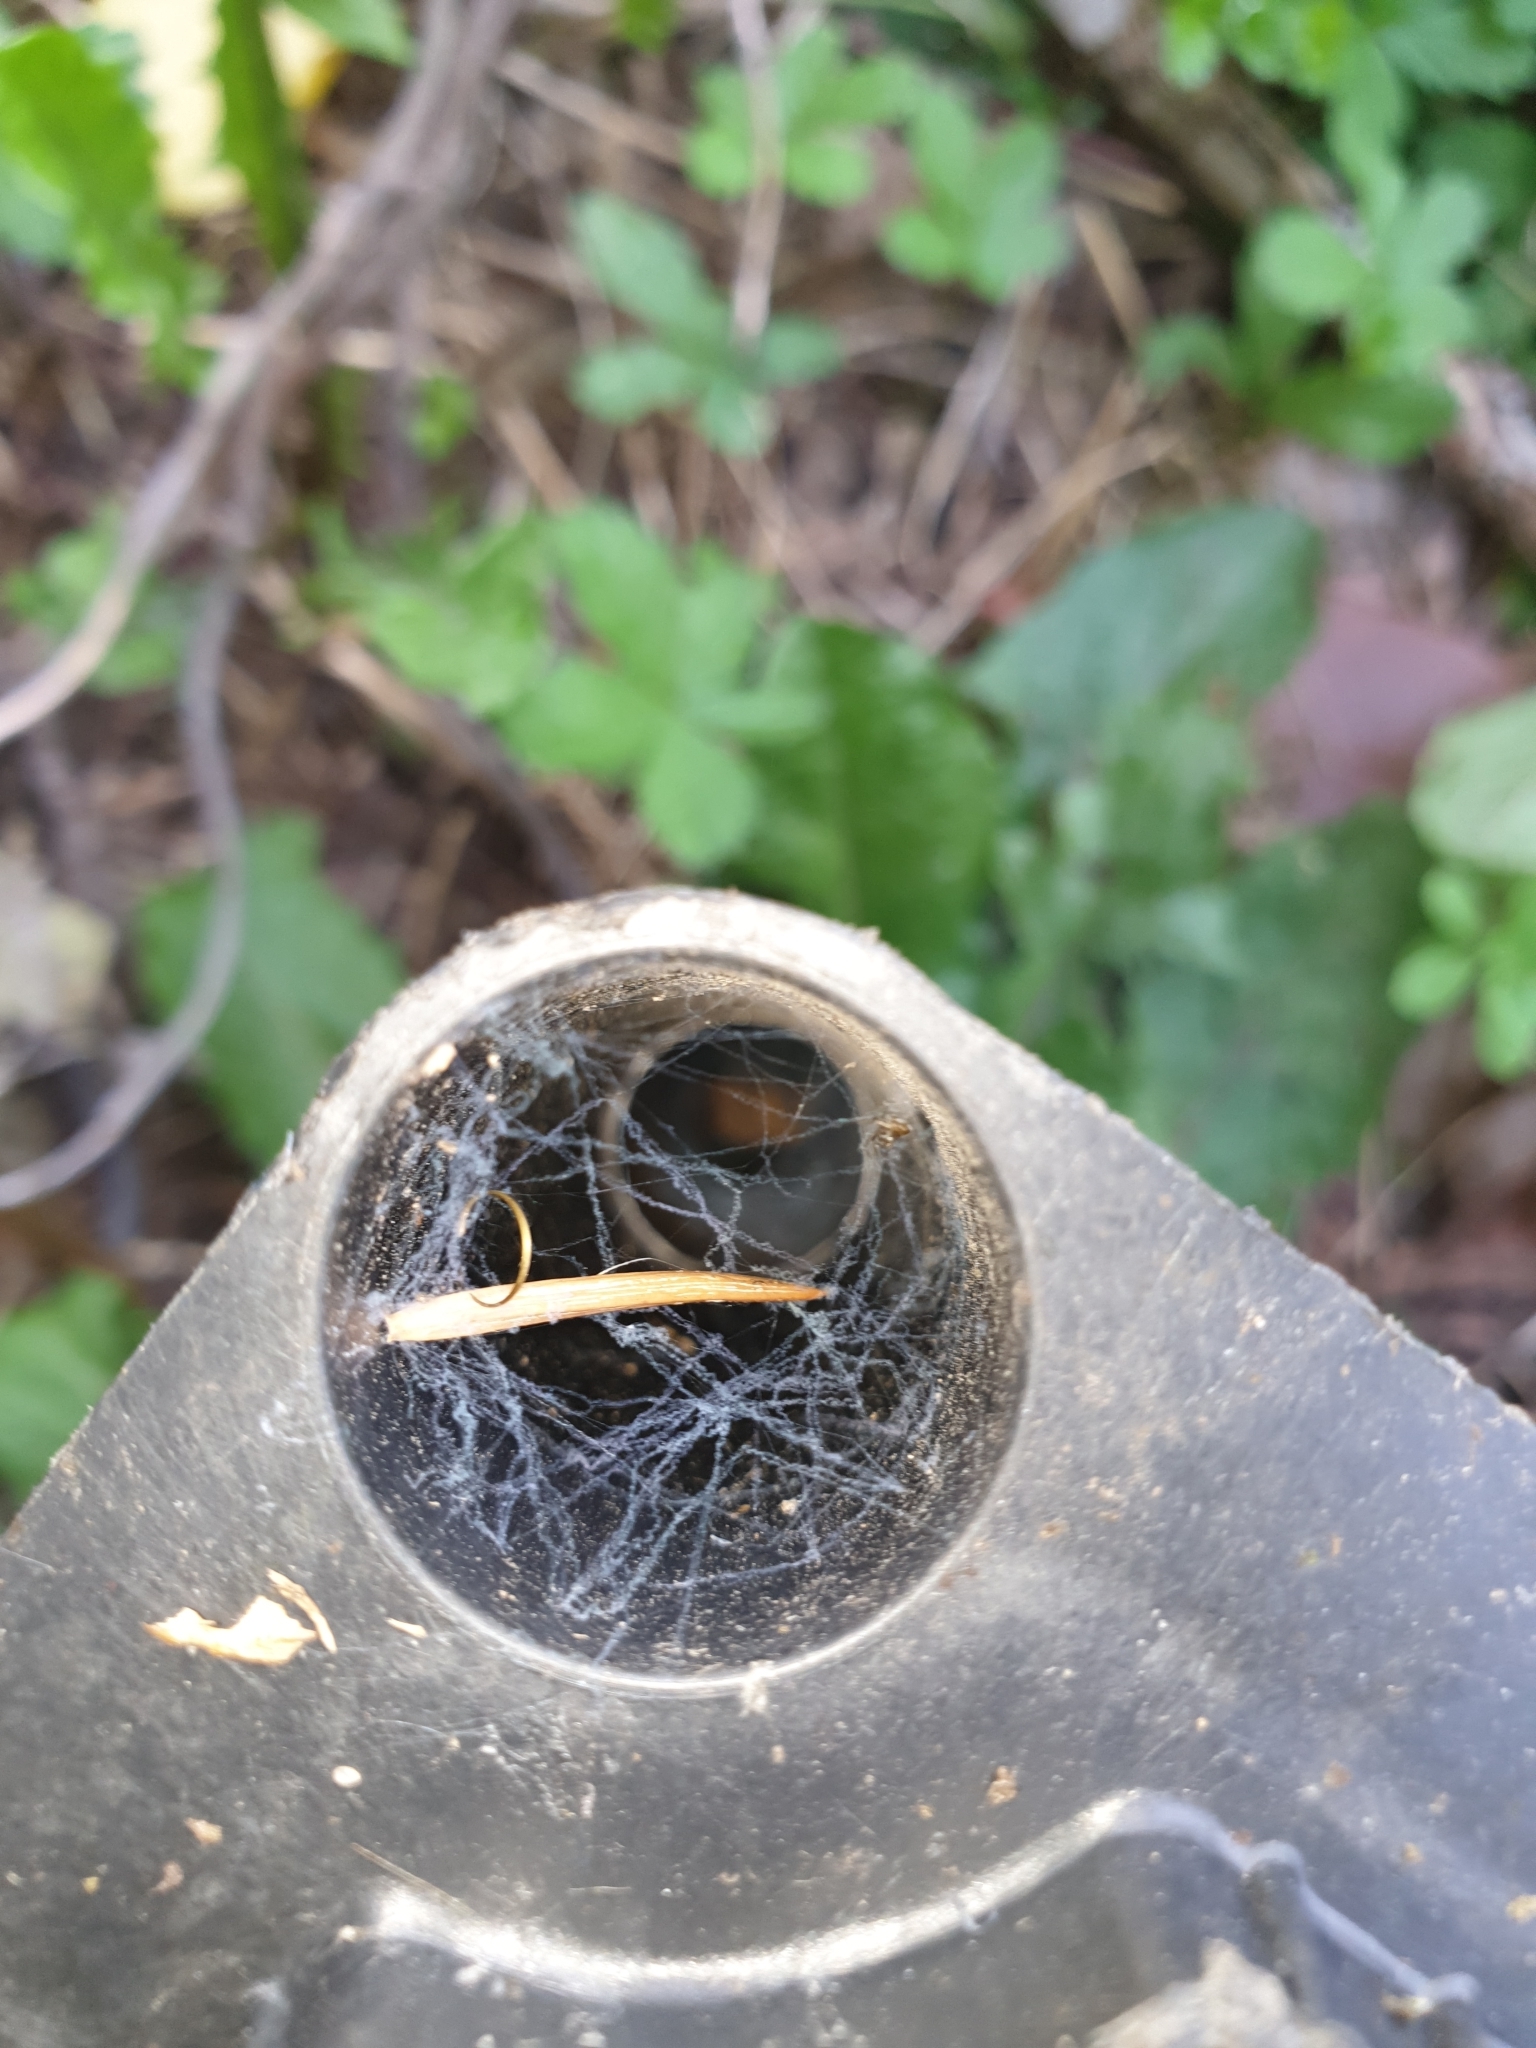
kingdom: Animalia
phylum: Arthropoda
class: Arachnida
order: Araneae
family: Zoropsidae
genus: Zoropsis
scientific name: Zoropsis spinimana
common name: Zoropsid spider
